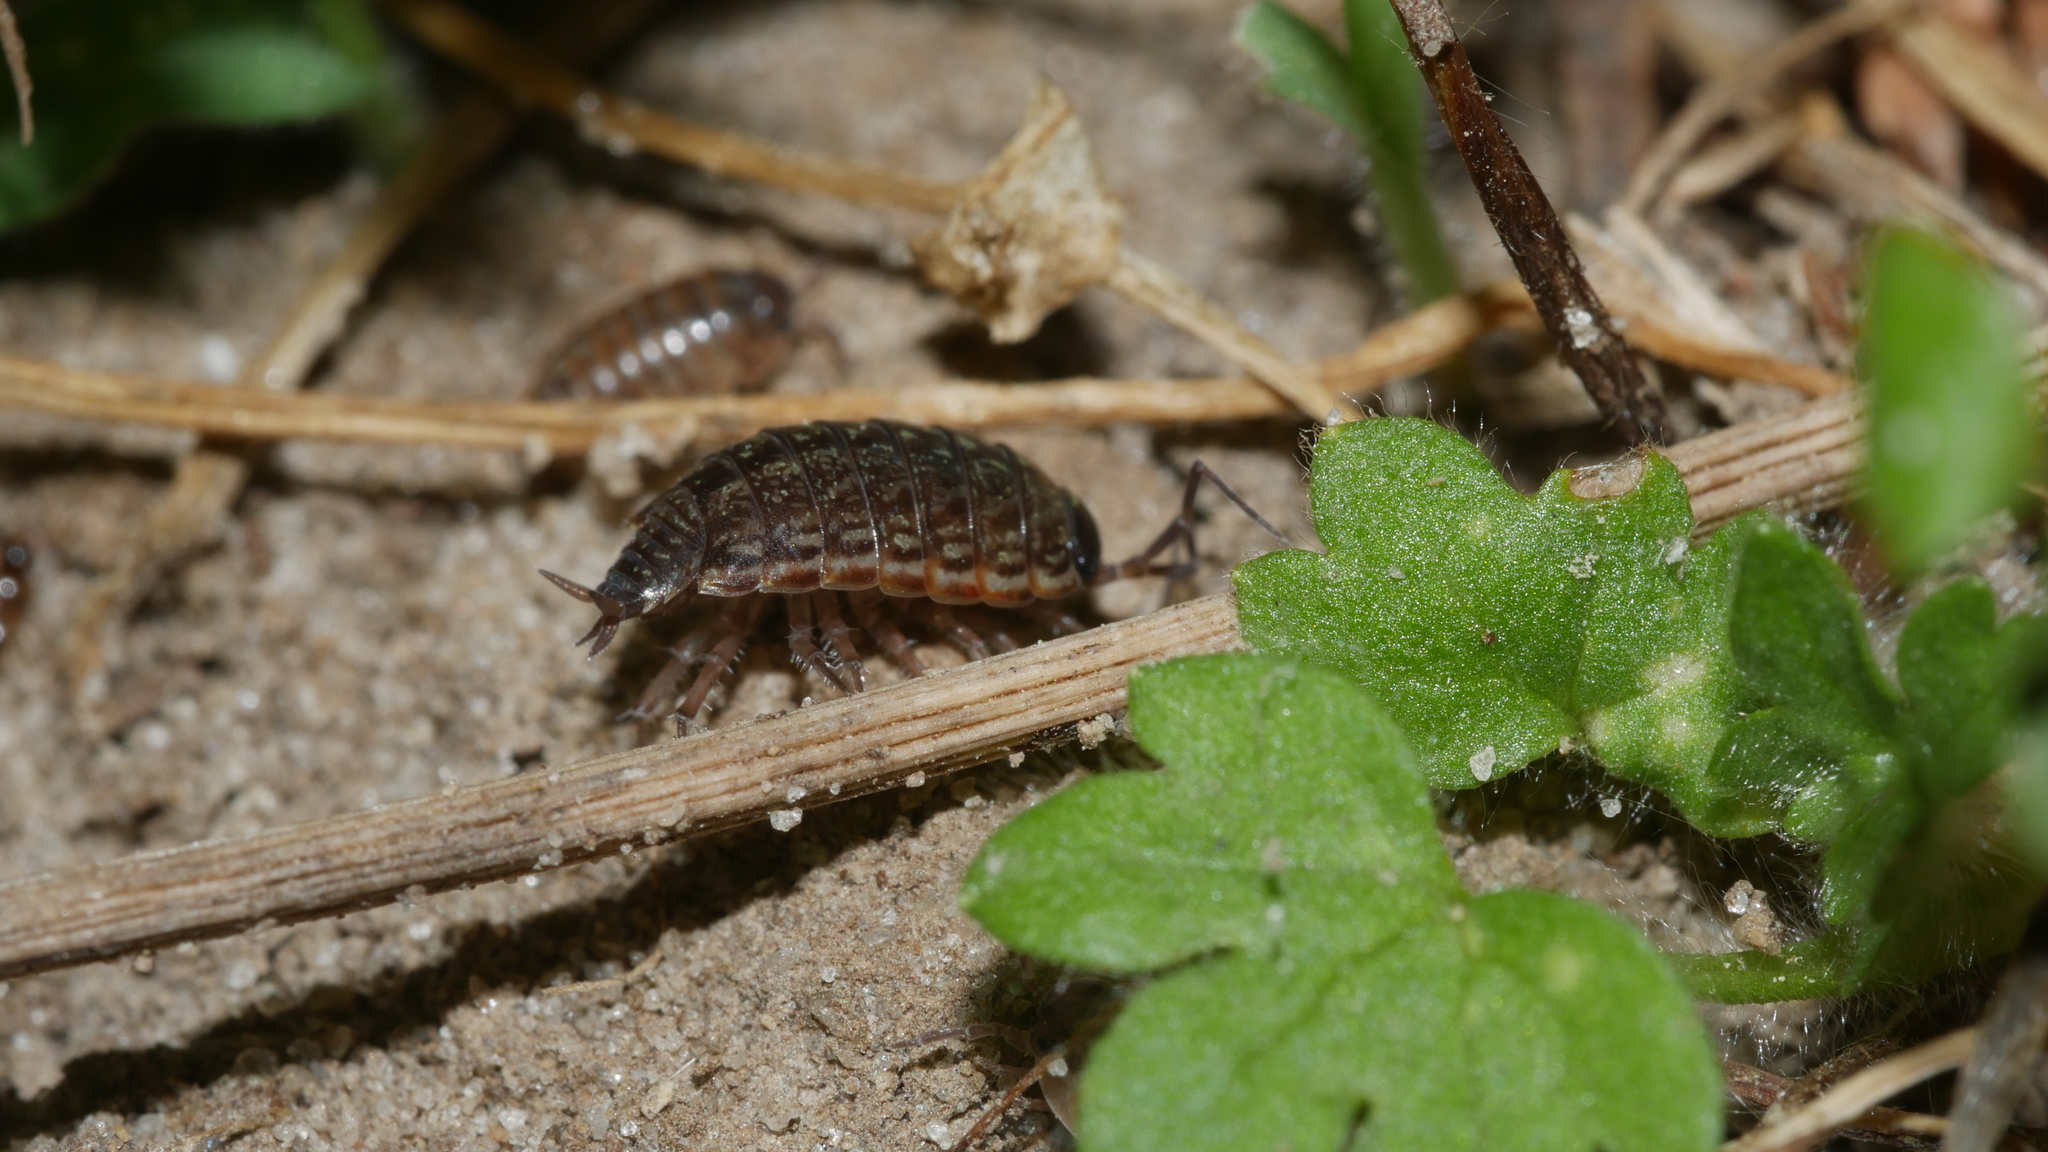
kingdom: Animalia
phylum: Arthropoda
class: Malacostraca
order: Isopoda
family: Philosciidae
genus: Philoscia
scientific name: Philoscia muscorum
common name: Common striped woodlouse
